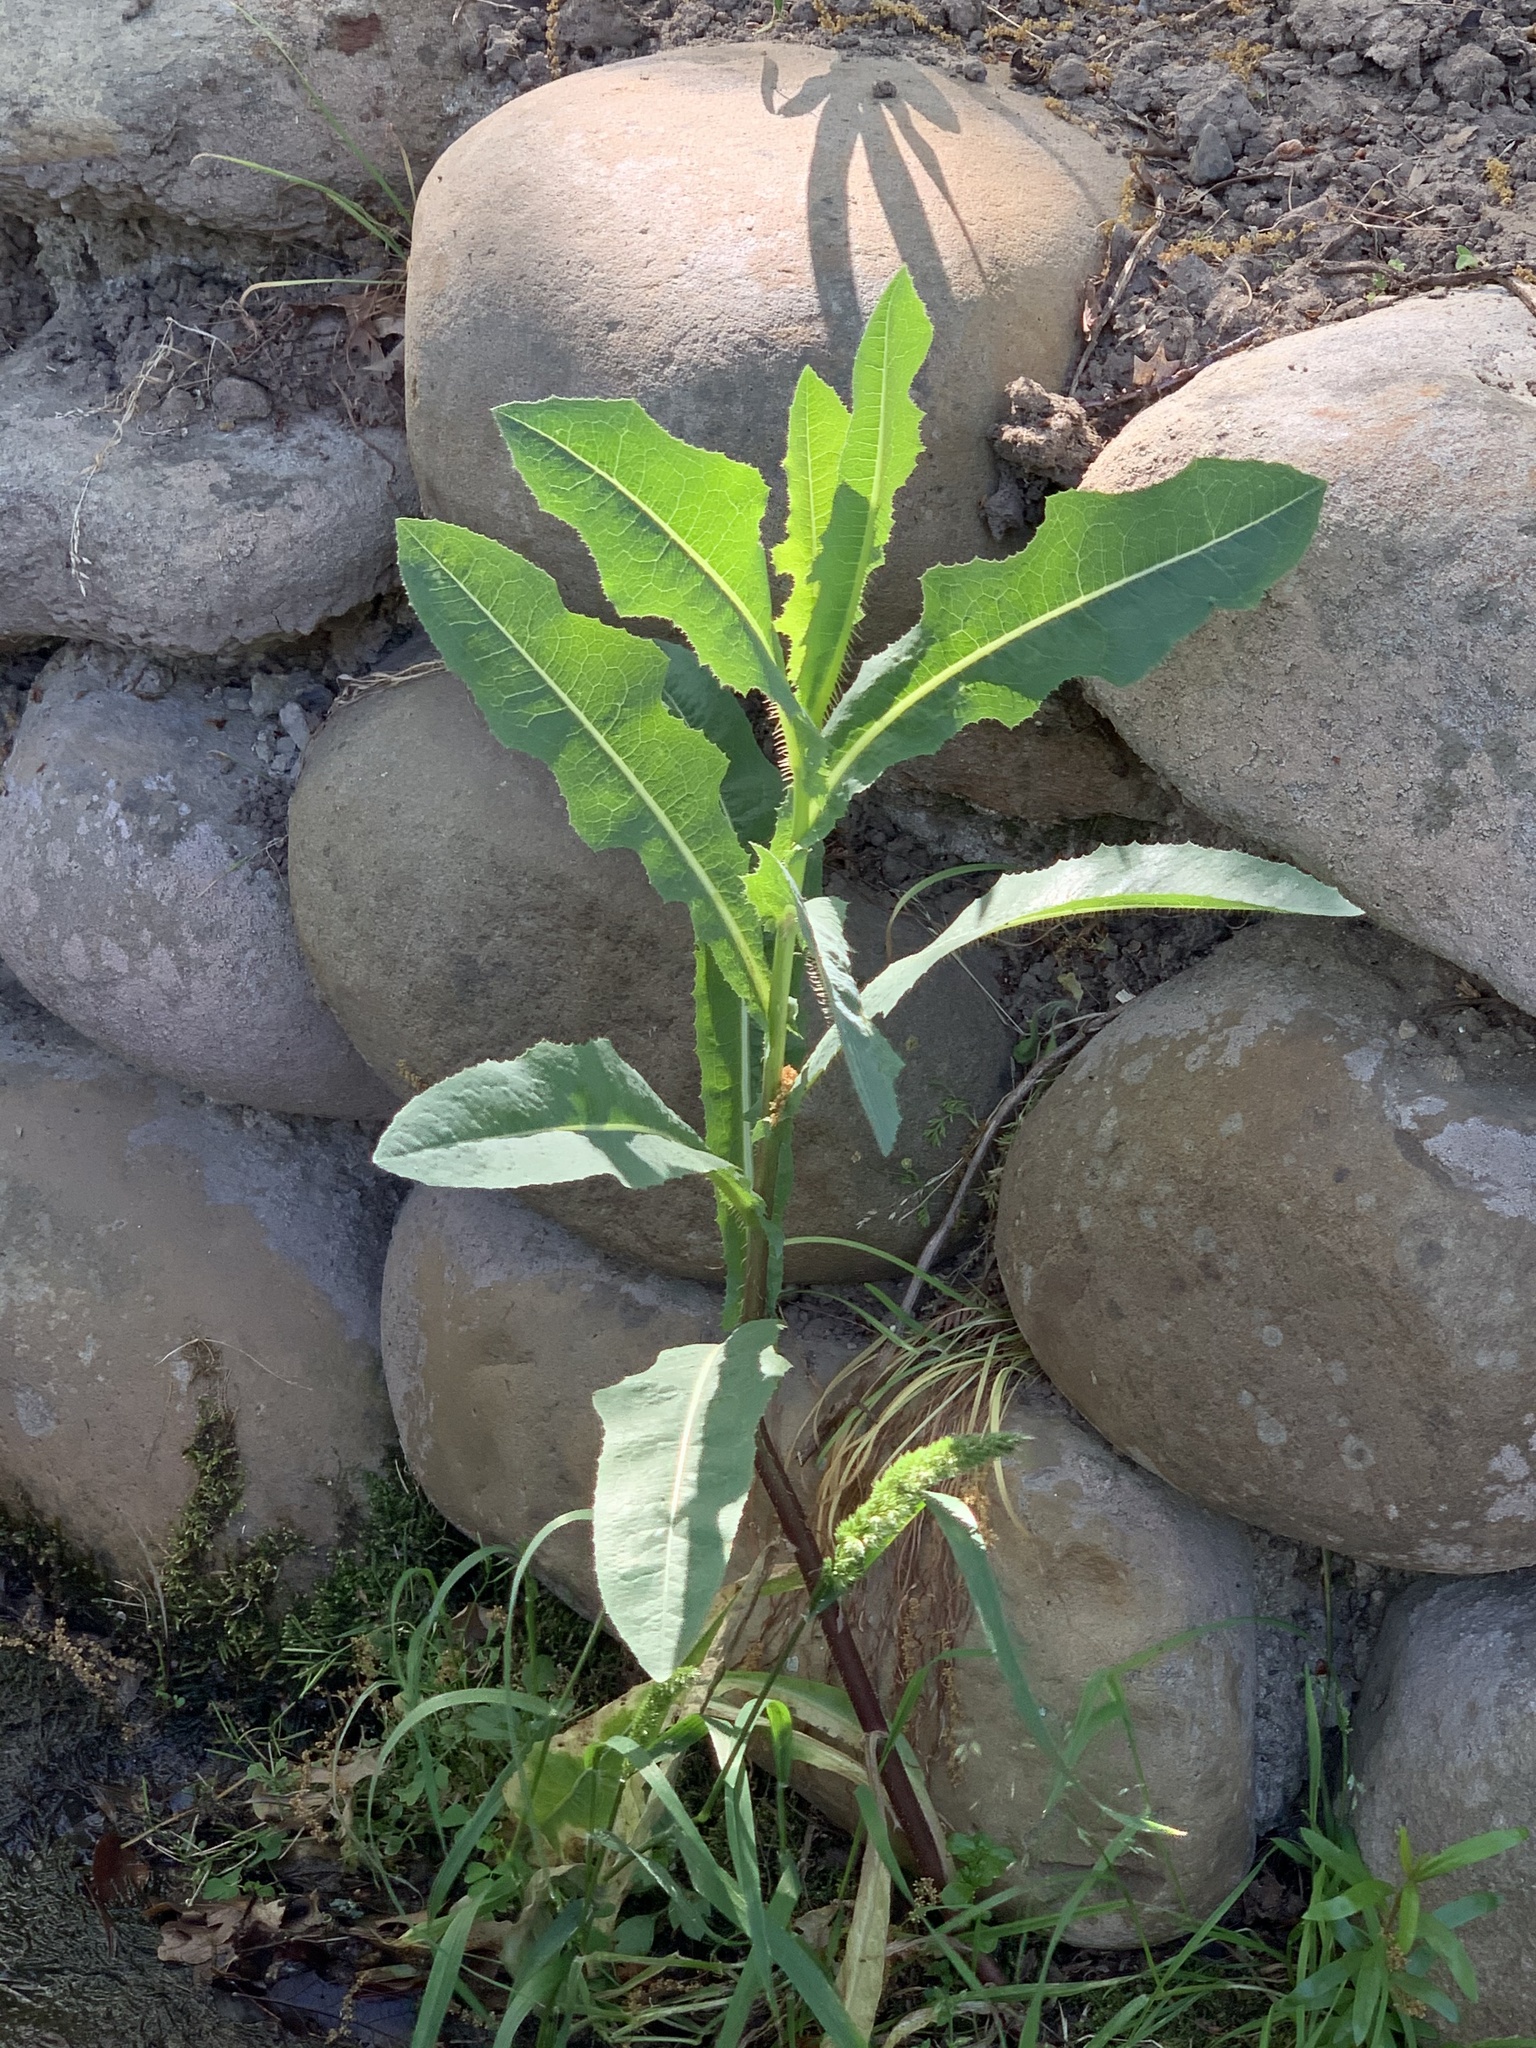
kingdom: Plantae
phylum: Tracheophyta
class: Magnoliopsida
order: Asterales
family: Asteraceae
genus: Lactuca
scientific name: Lactuca serriola
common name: Prickly lettuce
